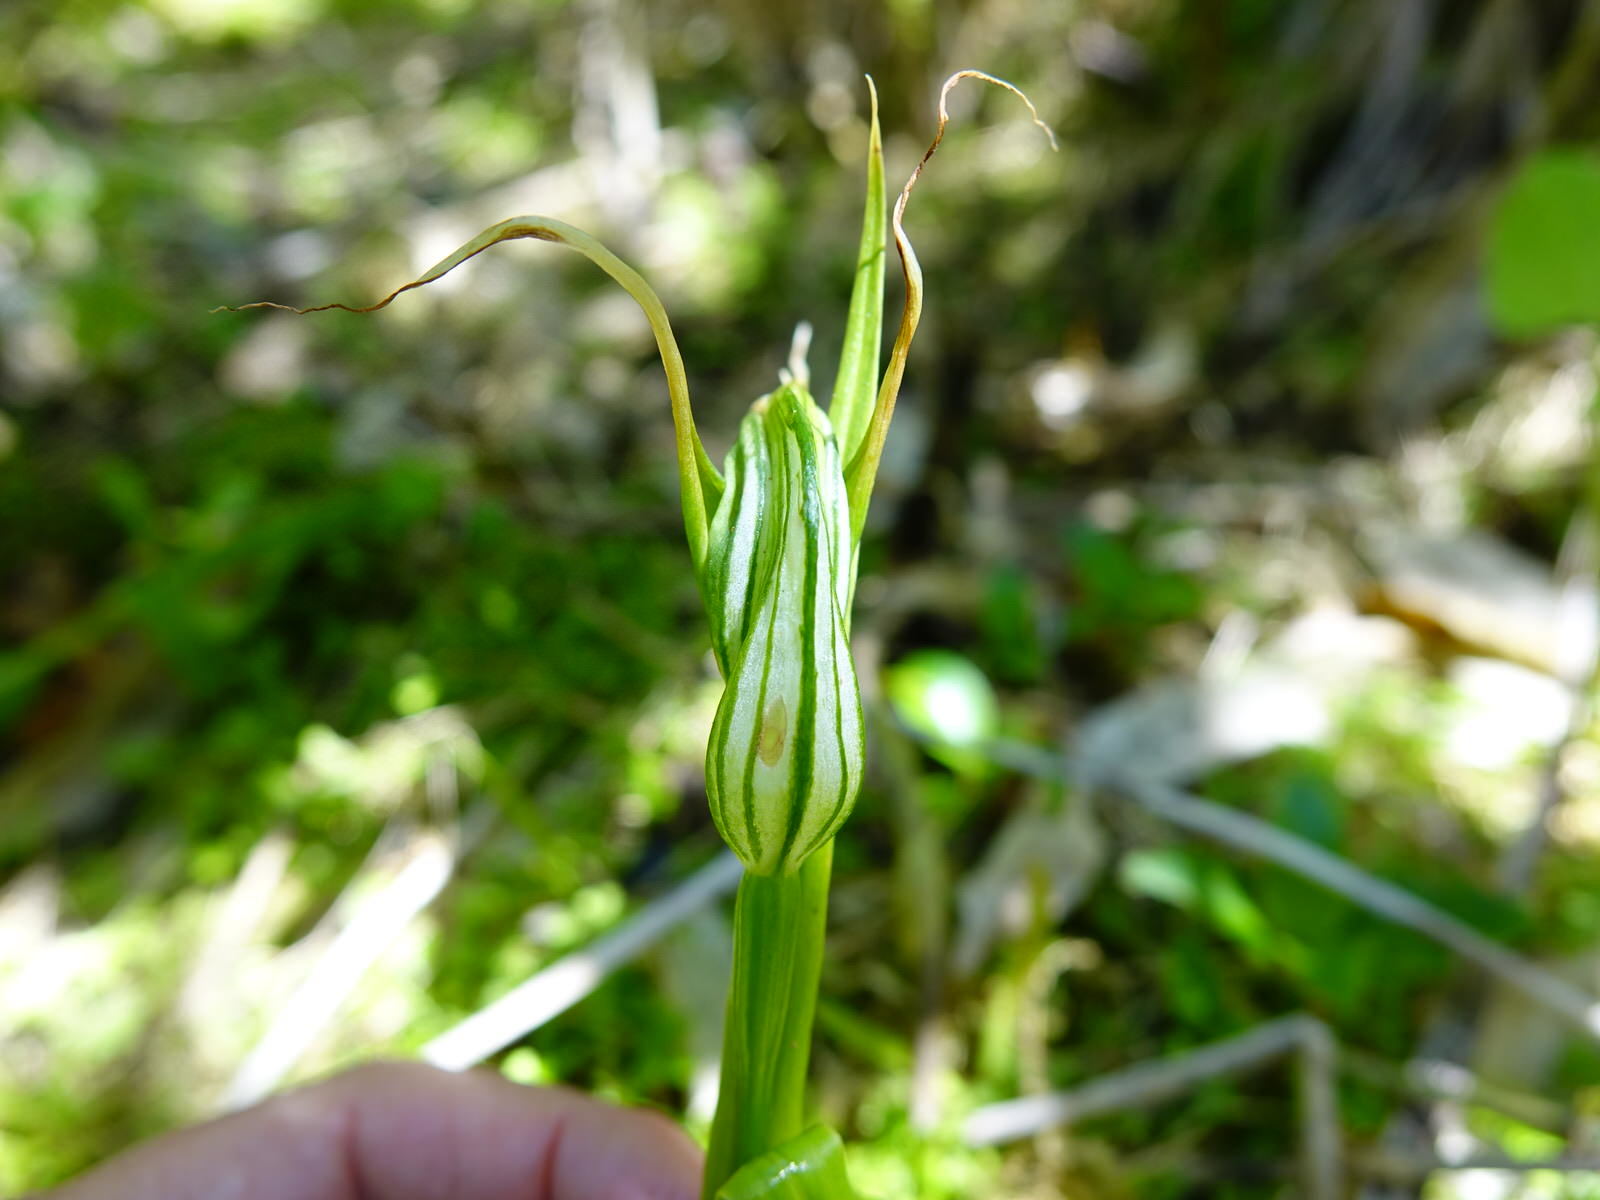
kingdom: Plantae
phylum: Tracheophyta
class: Liliopsida
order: Asparagales
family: Orchidaceae
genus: Pterostylis
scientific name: Pterostylis banksii
